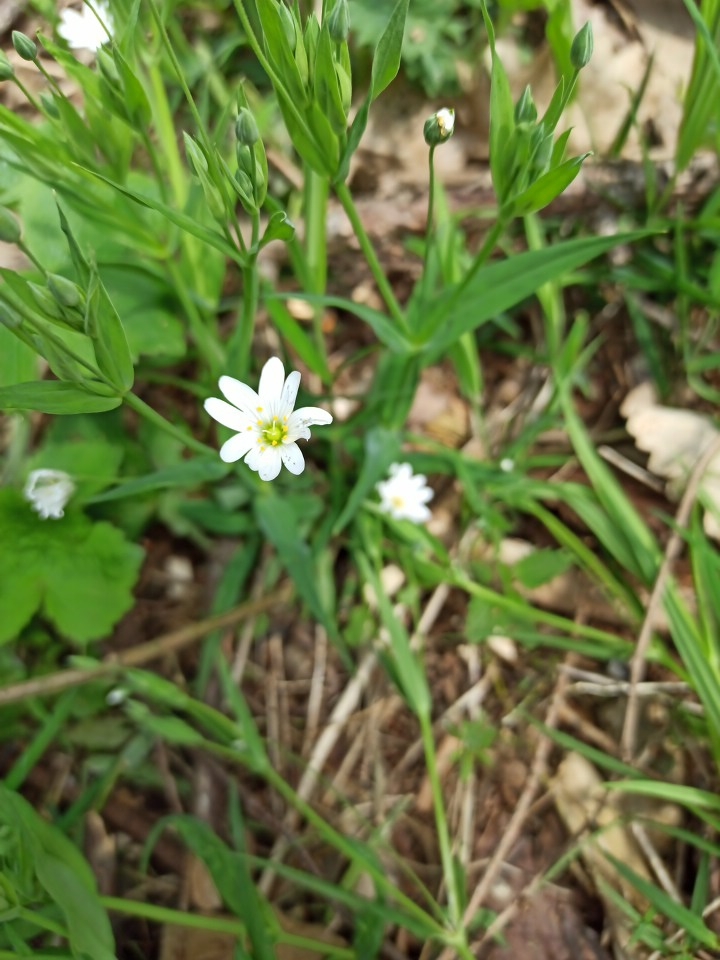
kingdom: Plantae
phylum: Tracheophyta
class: Magnoliopsida
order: Caryophyllales
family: Caryophyllaceae
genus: Rabelera
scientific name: Rabelera holostea
